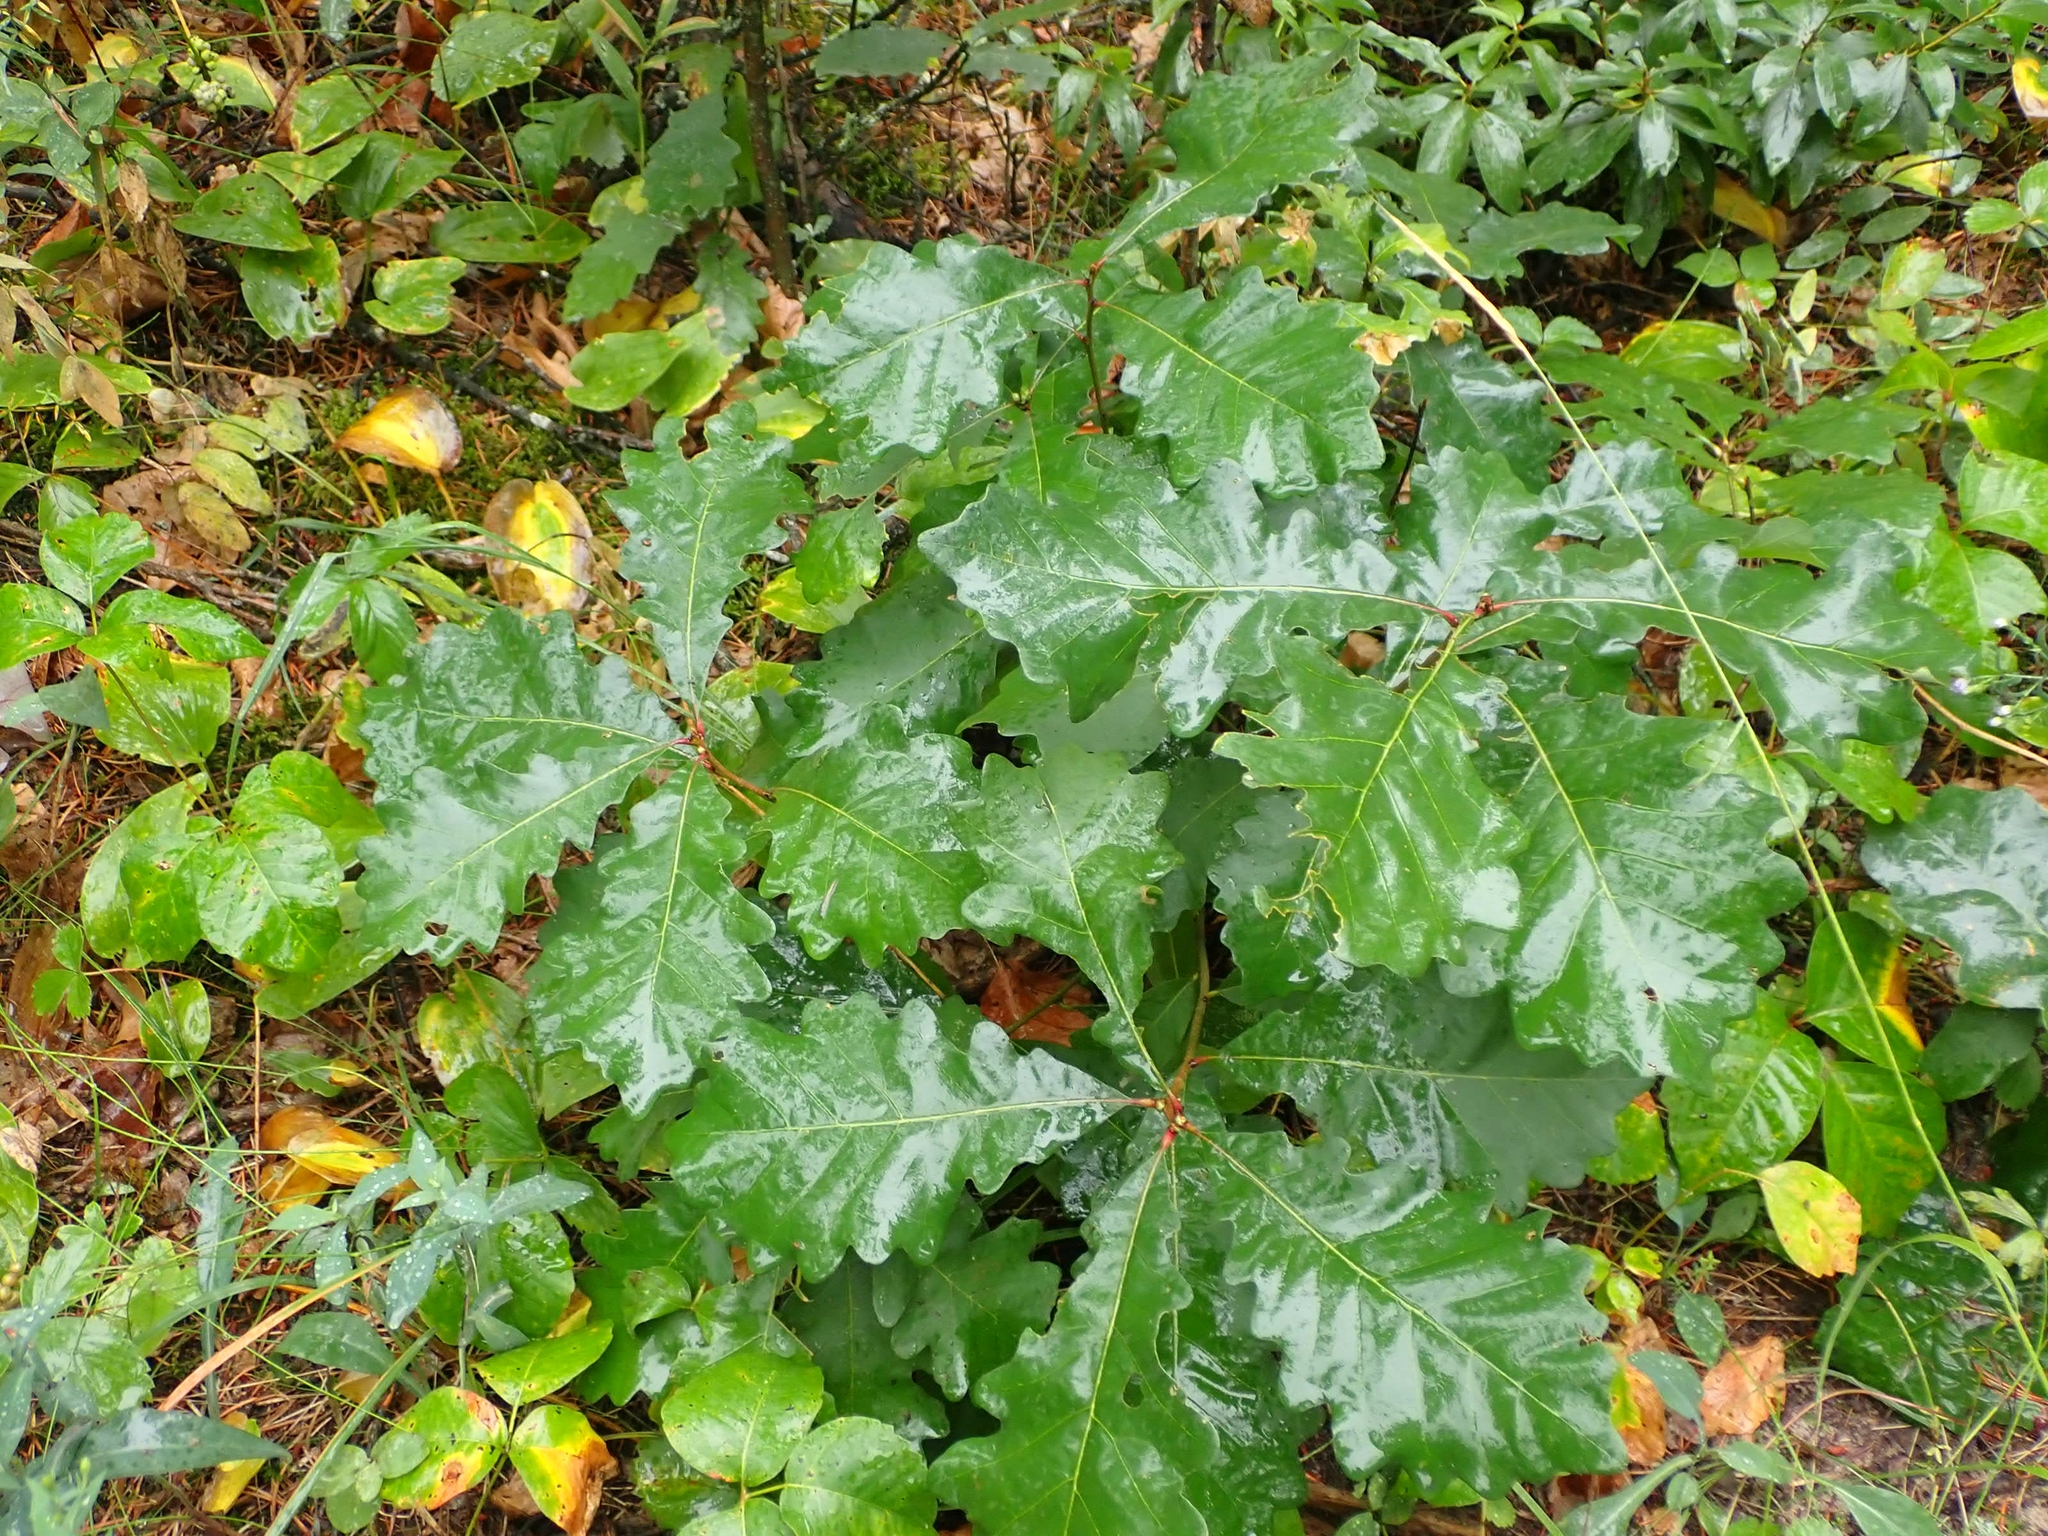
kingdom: Plantae
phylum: Tracheophyta
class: Magnoliopsida
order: Fagales
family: Fagaceae
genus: Quercus
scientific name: Quercus macrocarpa
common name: Bur oak
